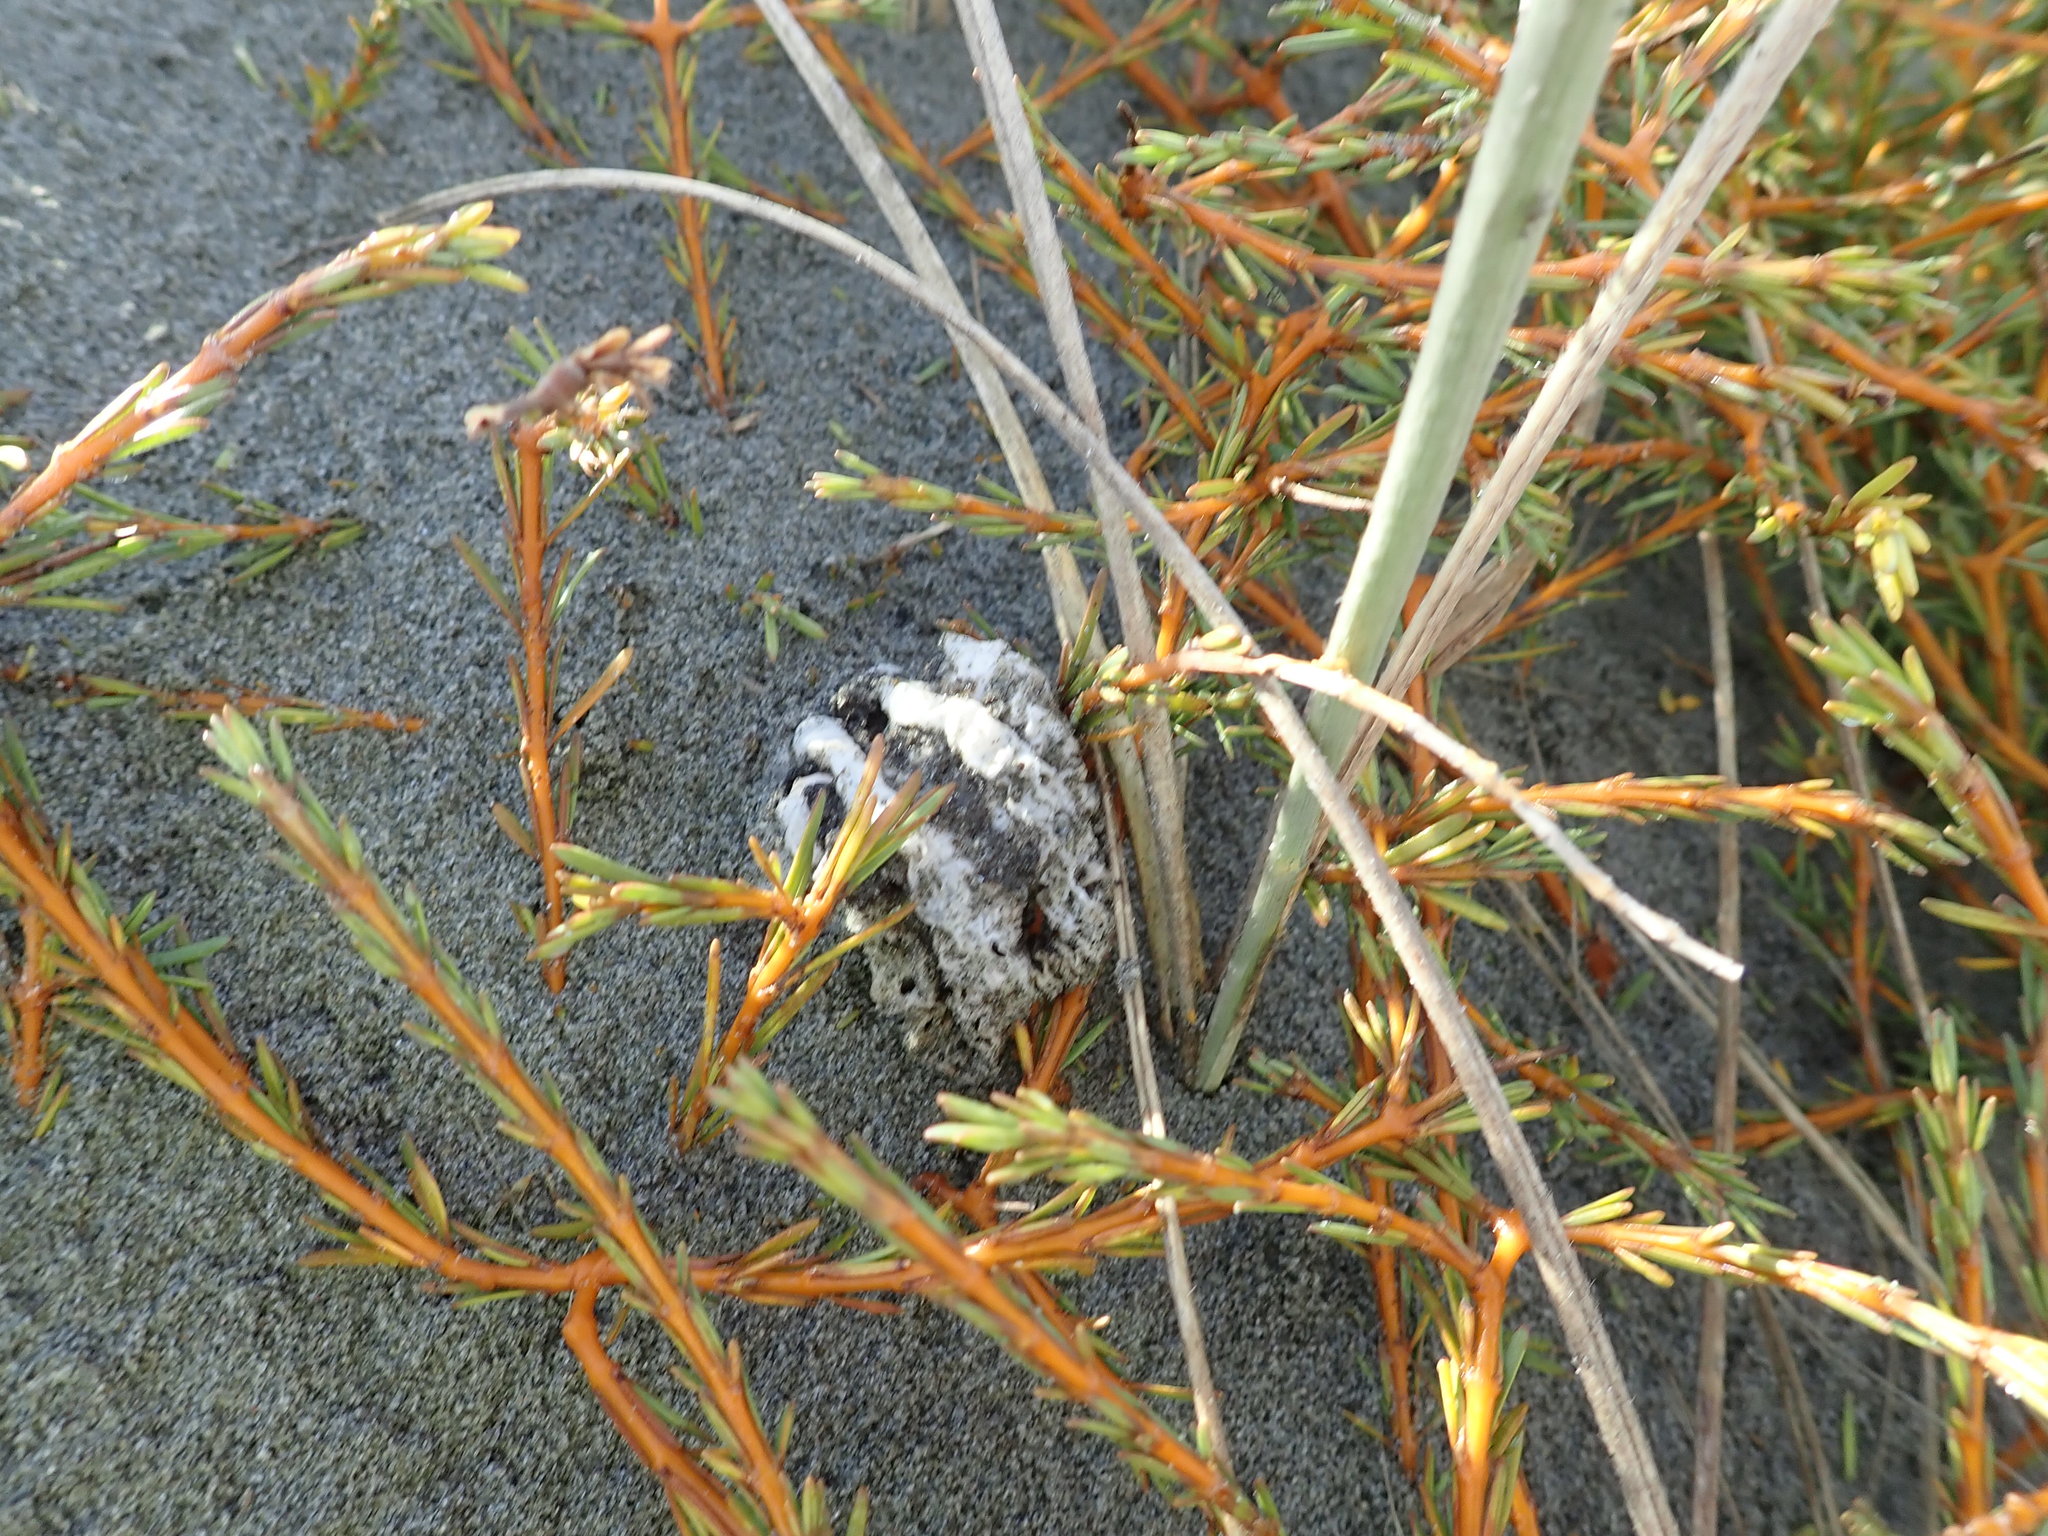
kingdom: Fungi
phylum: Basidiomycota
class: Agaricomycetes
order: Phallales
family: Phallaceae
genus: Ileodictyon
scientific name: Ileodictyon cibarium
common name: Basket fungus
